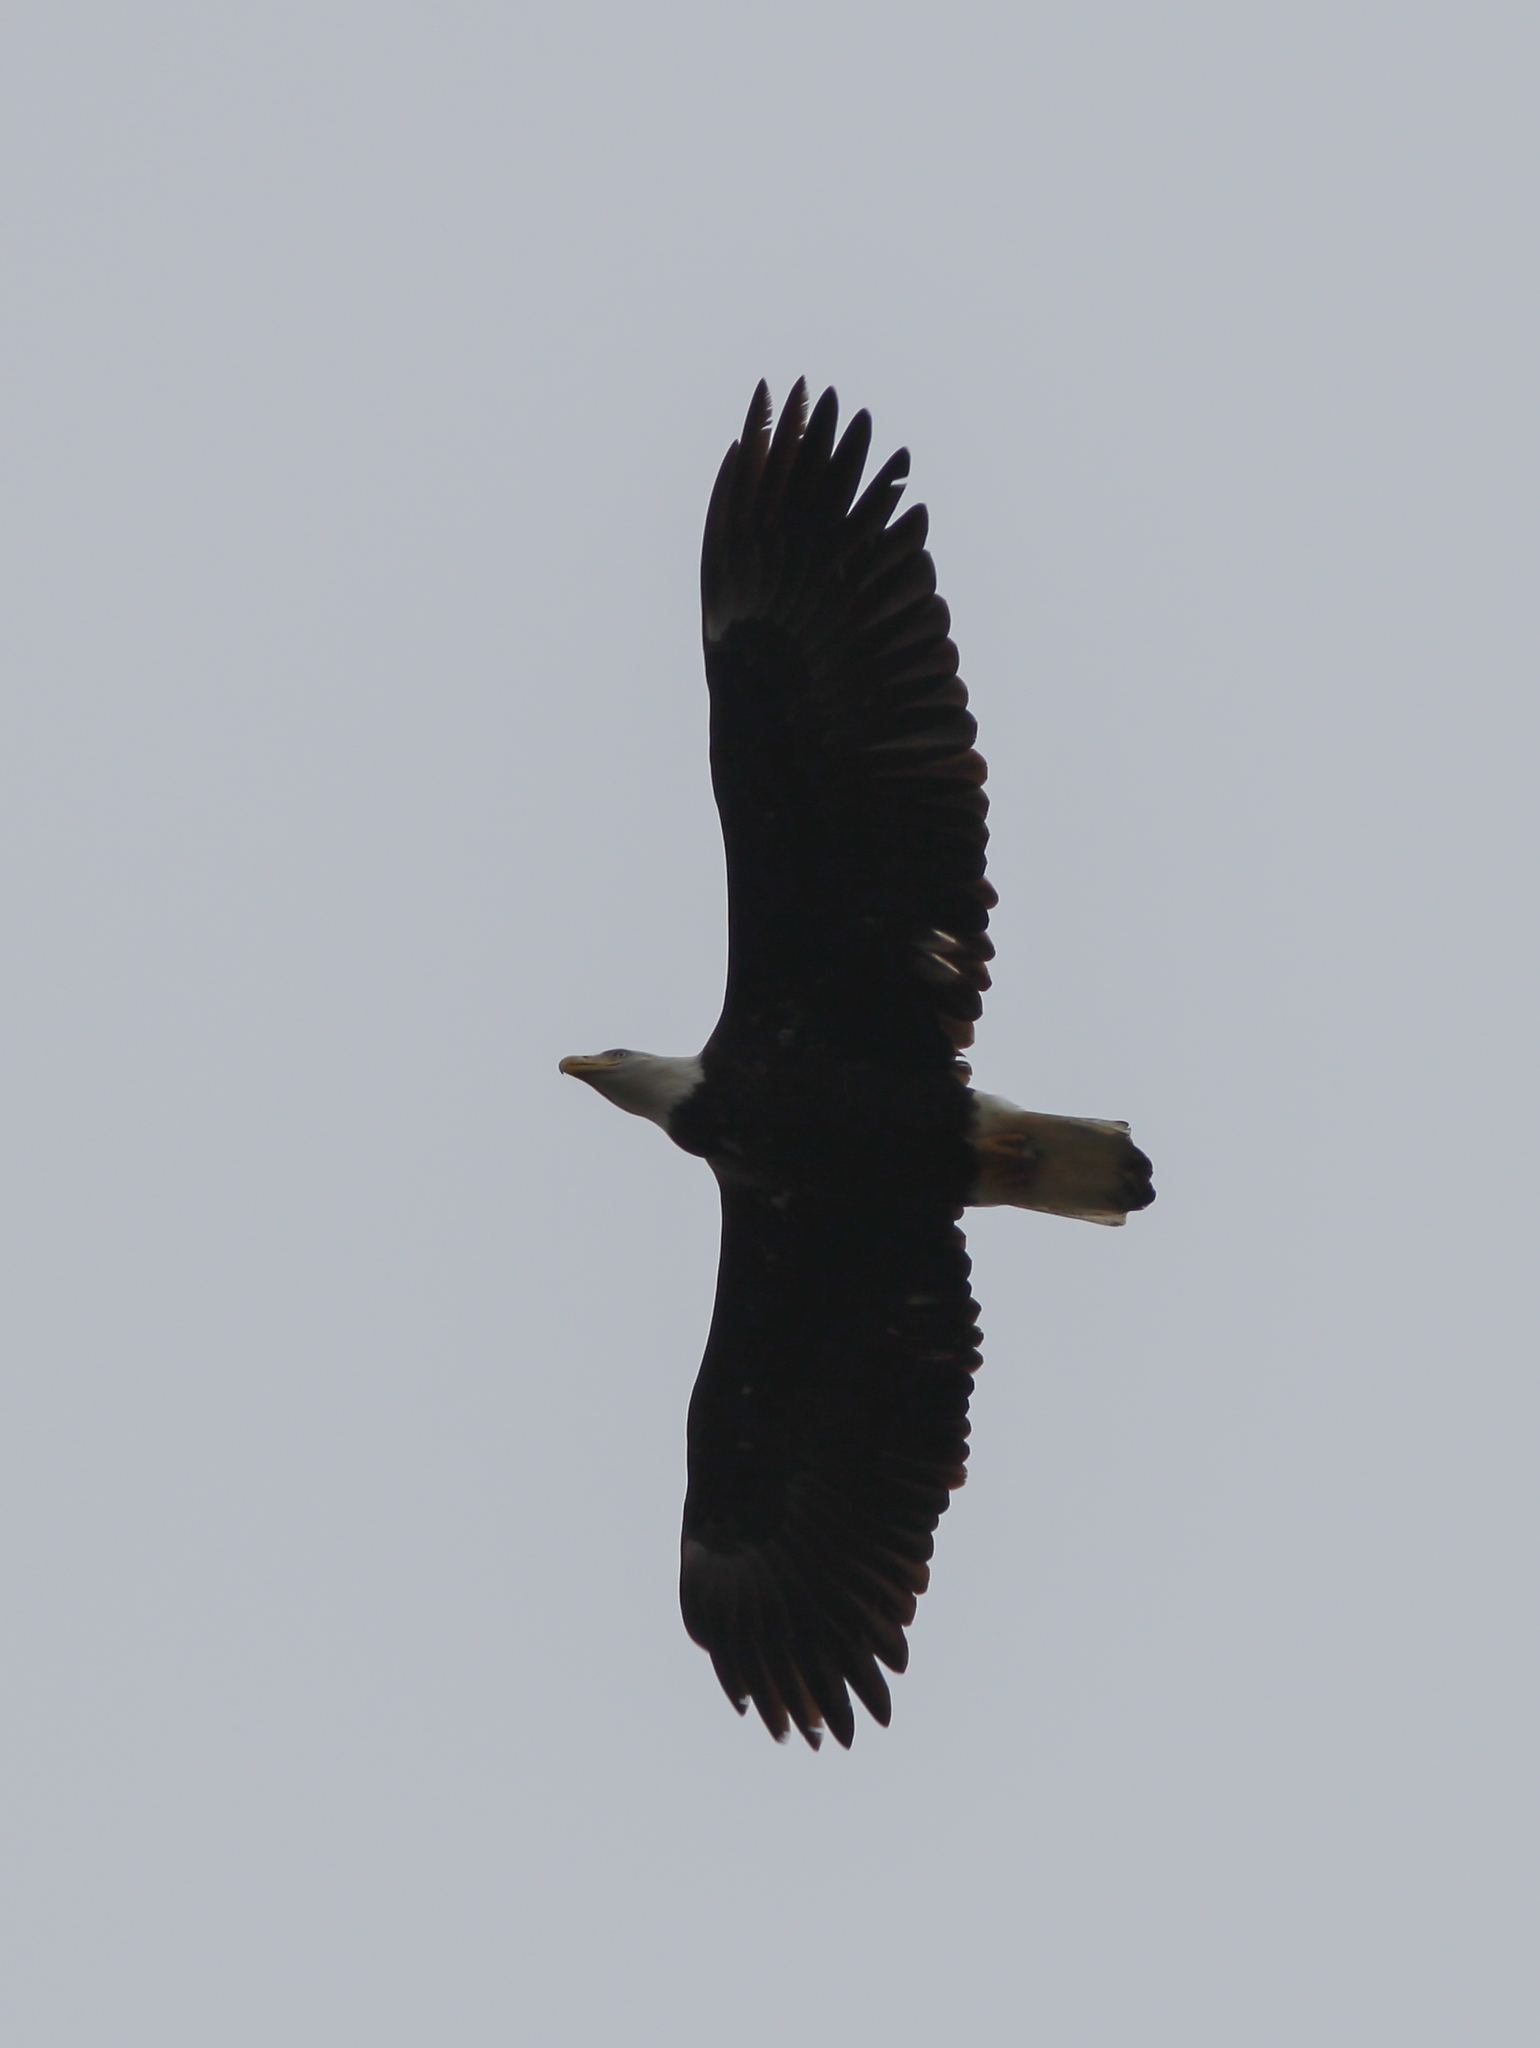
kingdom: Animalia
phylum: Chordata
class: Aves
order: Accipitriformes
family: Accipitridae
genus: Haliaeetus
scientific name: Haliaeetus leucocephalus
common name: Bald eagle
